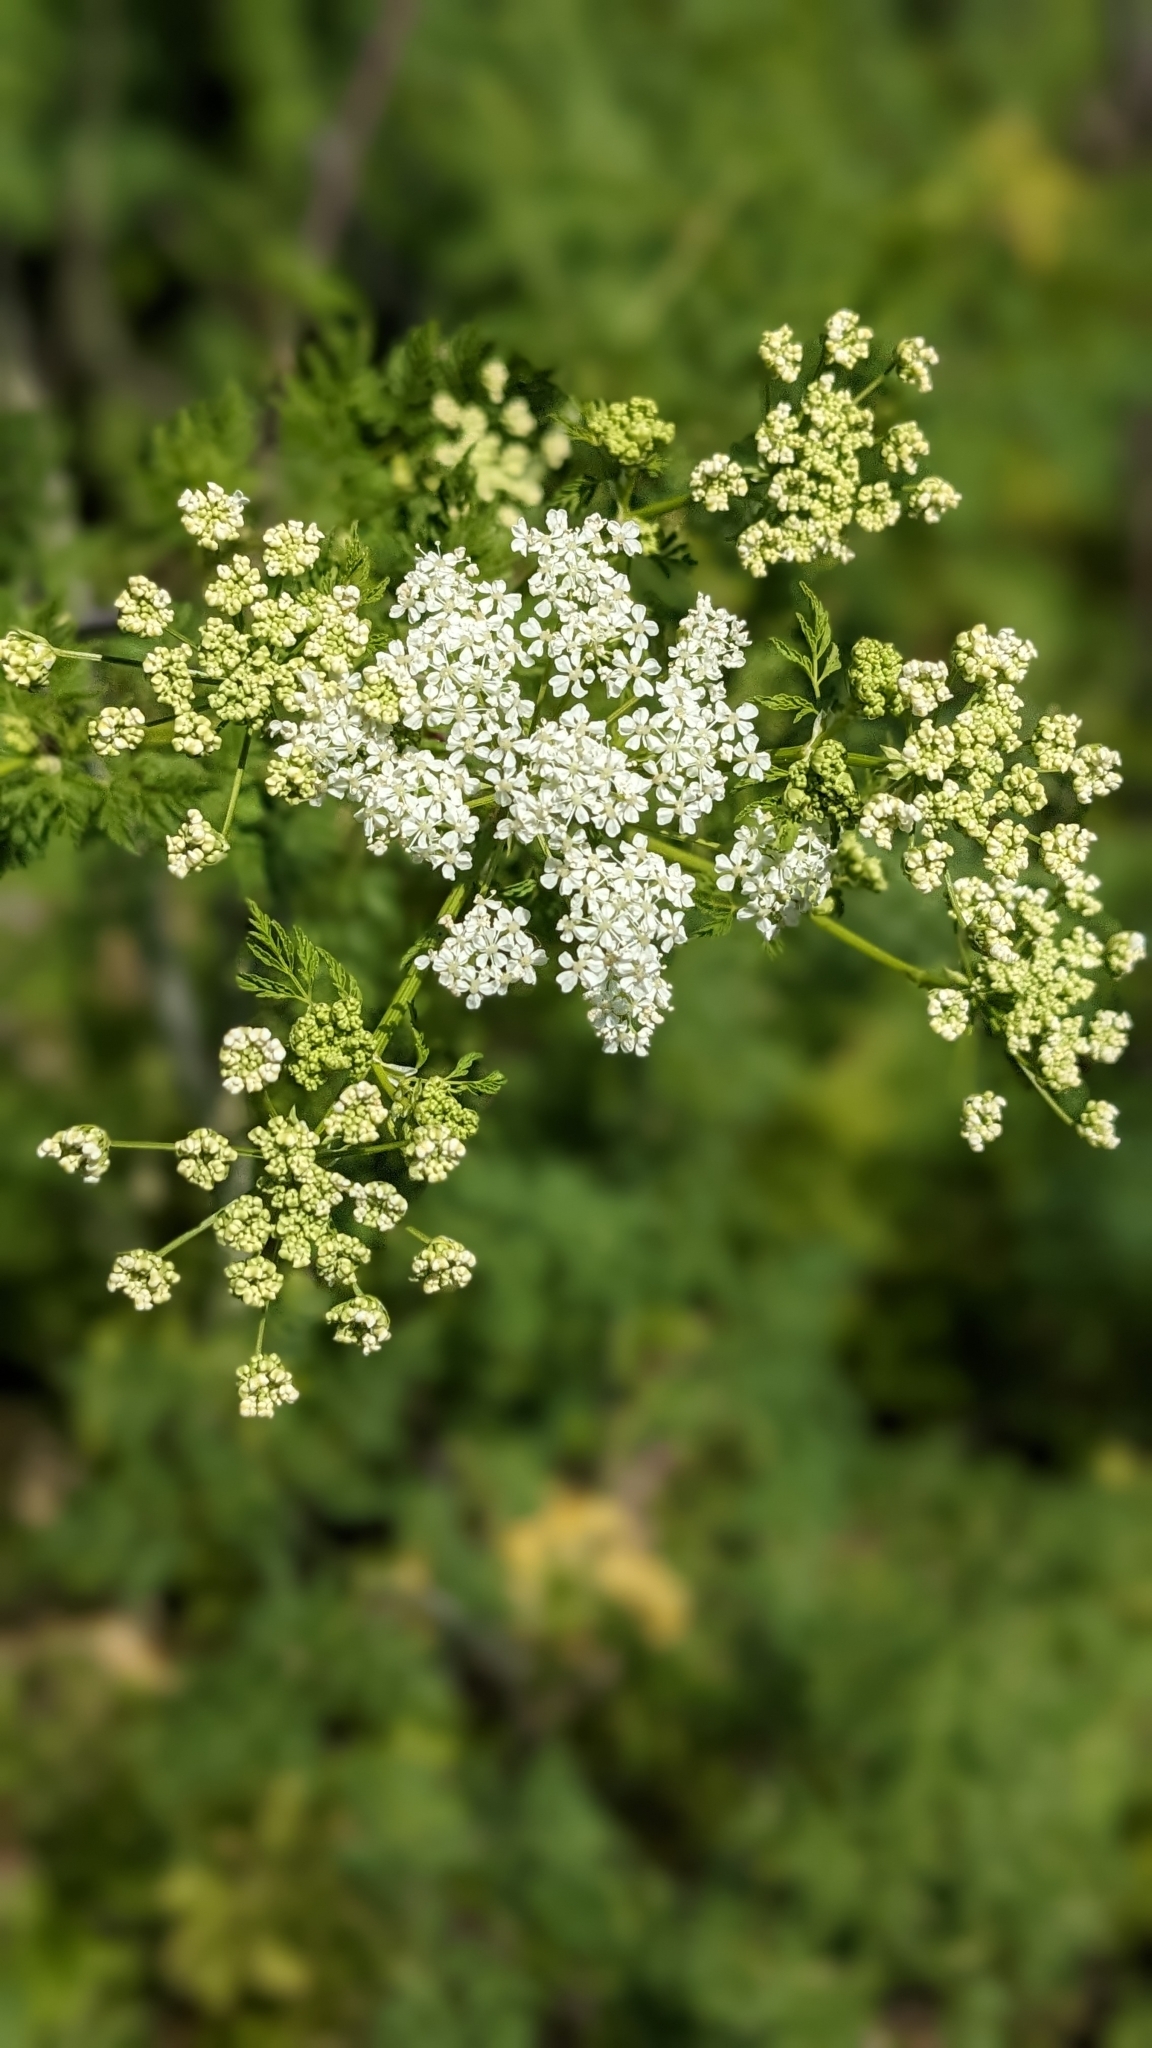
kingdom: Plantae
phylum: Tracheophyta
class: Magnoliopsida
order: Apiales
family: Apiaceae
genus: Conium
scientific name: Conium maculatum
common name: Hemlock
